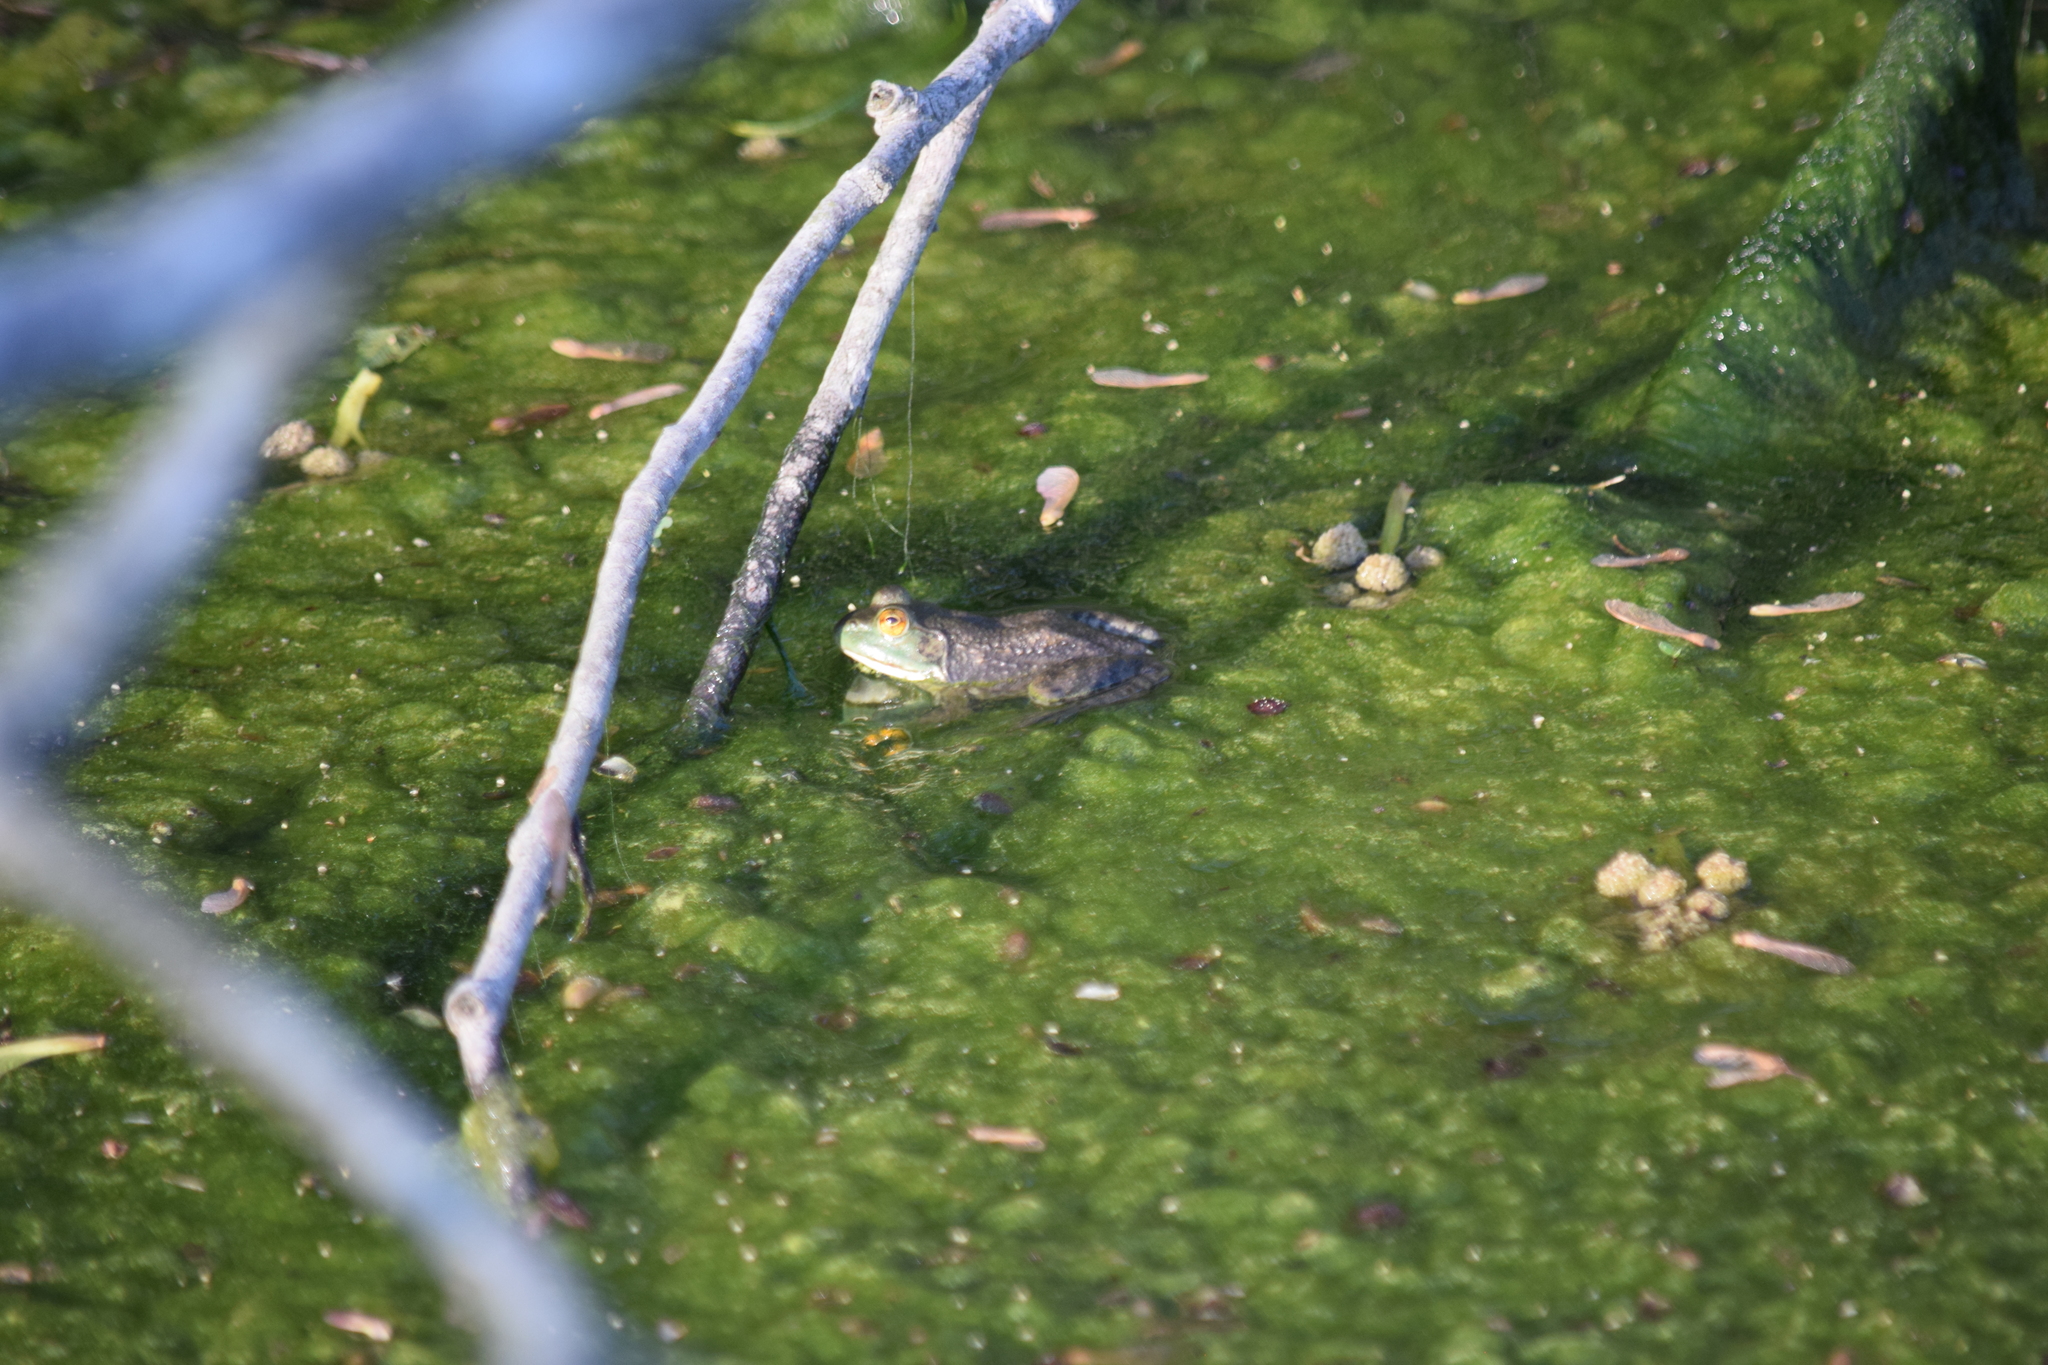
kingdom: Animalia
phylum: Chordata
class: Amphibia
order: Anura
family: Ranidae
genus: Lithobates
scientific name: Lithobates catesbeianus
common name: American bullfrog
